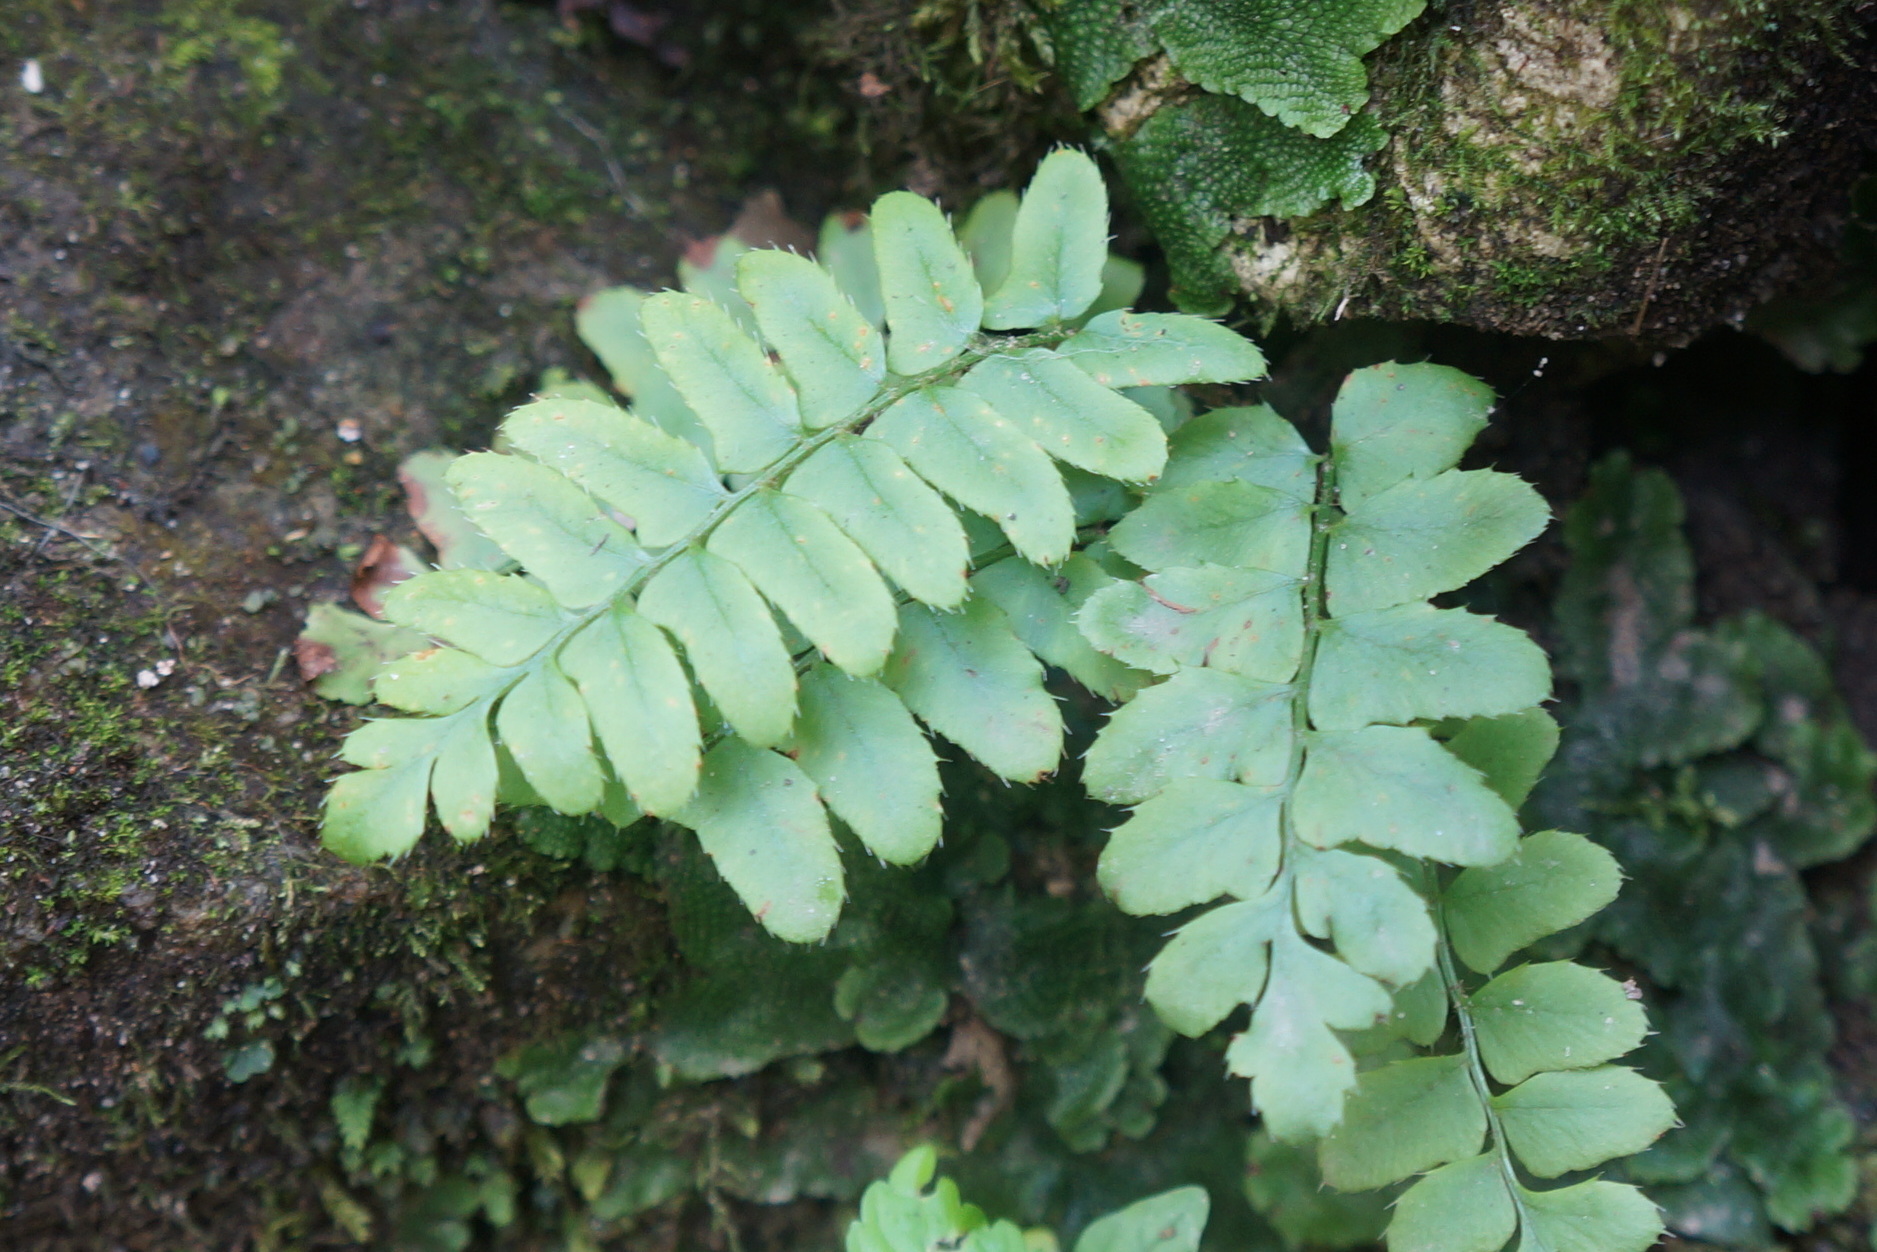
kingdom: Plantae
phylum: Tracheophyta
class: Polypodiopsida
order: Polypodiales
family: Dryopteridaceae
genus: Polystichum
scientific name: Polystichum acrostichoides
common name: Christmas fern
